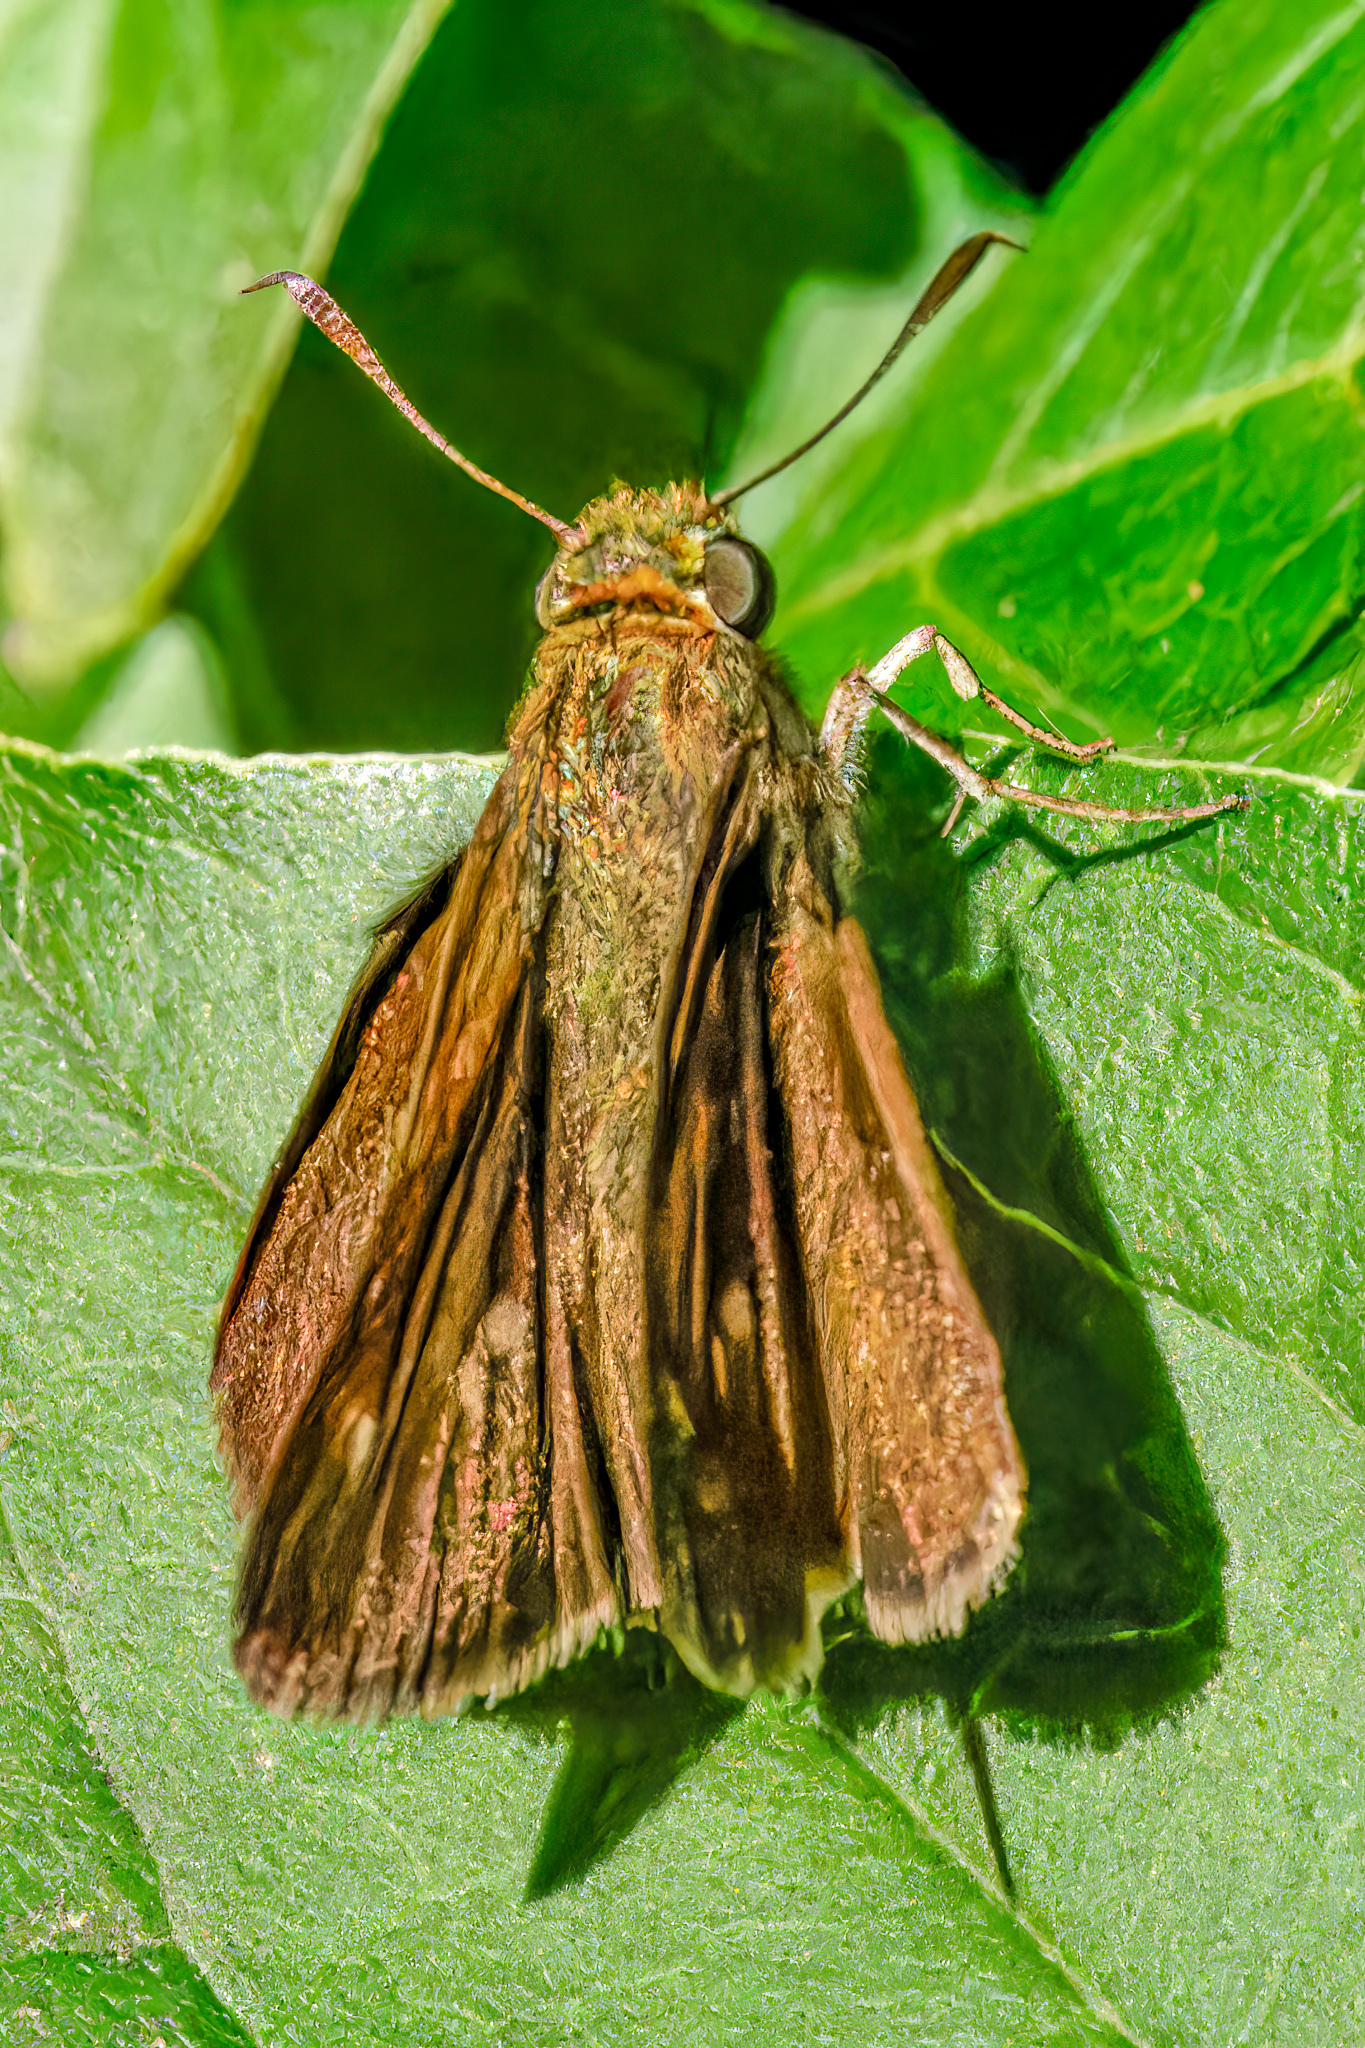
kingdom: Animalia
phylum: Arthropoda
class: Insecta
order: Lepidoptera
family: Hesperiidae
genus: Euphyes
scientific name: Euphyes vestris
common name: Dun skipper
